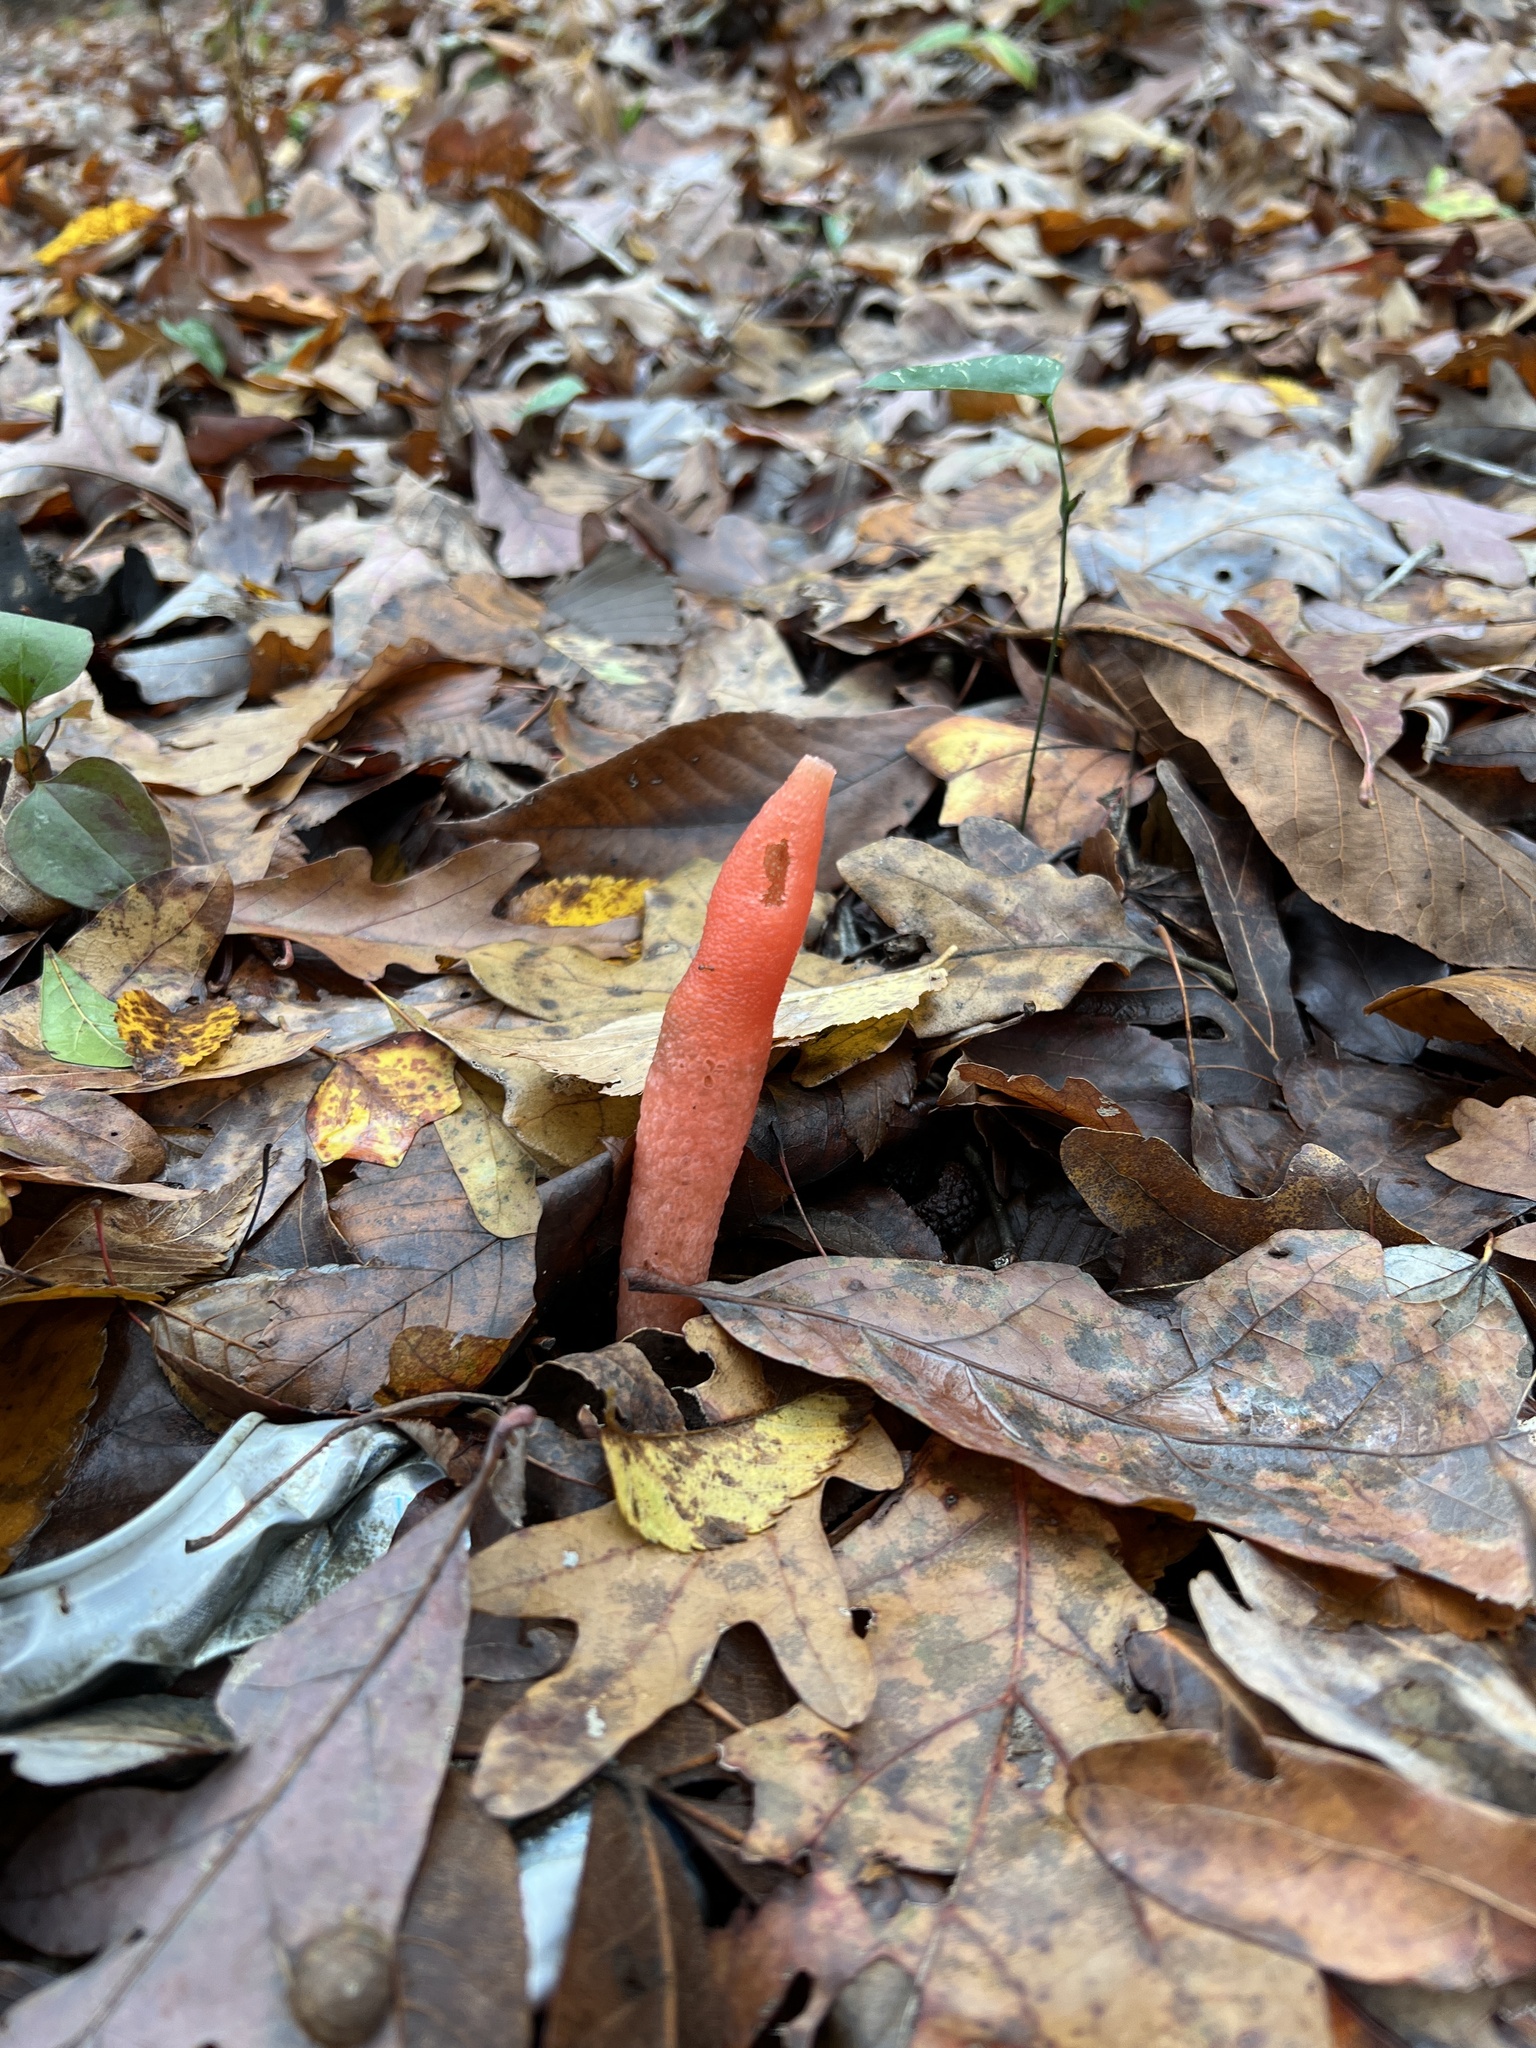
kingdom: Fungi
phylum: Basidiomycota
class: Agaricomycetes
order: Phallales
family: Phallaceae
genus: Mutinus
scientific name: Mutinus elegans
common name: Devil's dipstick
